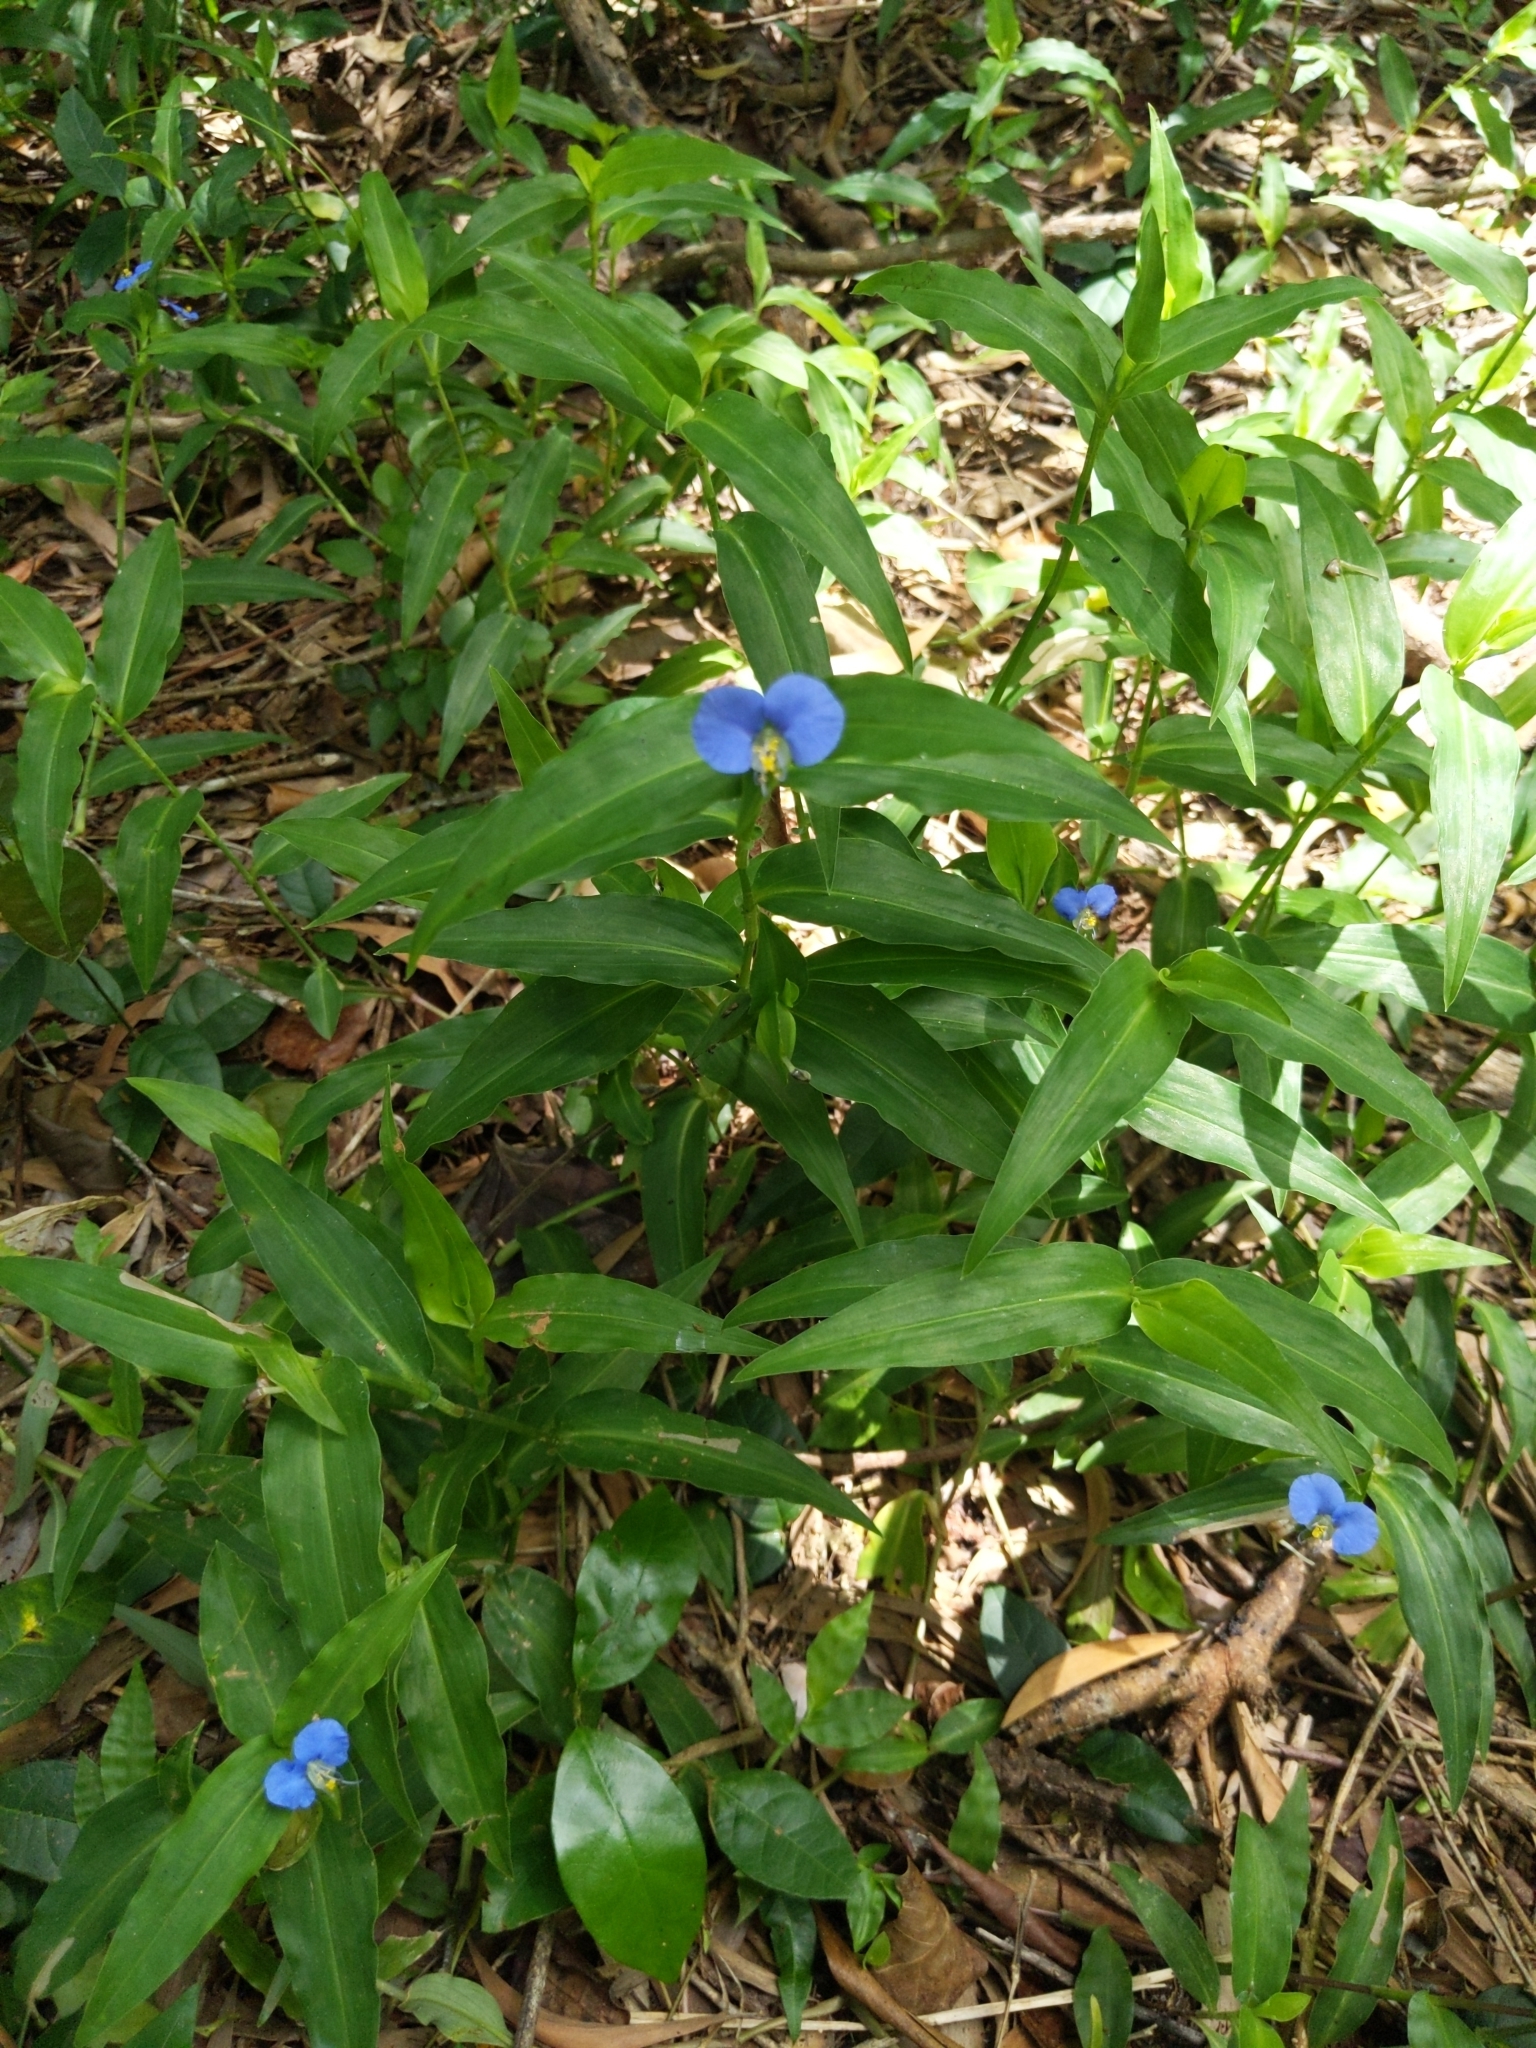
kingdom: Plantae
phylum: Tracheophyta
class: Liliopsida
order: Commelinales
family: Commelinaceae
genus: Commelina
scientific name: Commelina ensifolia
